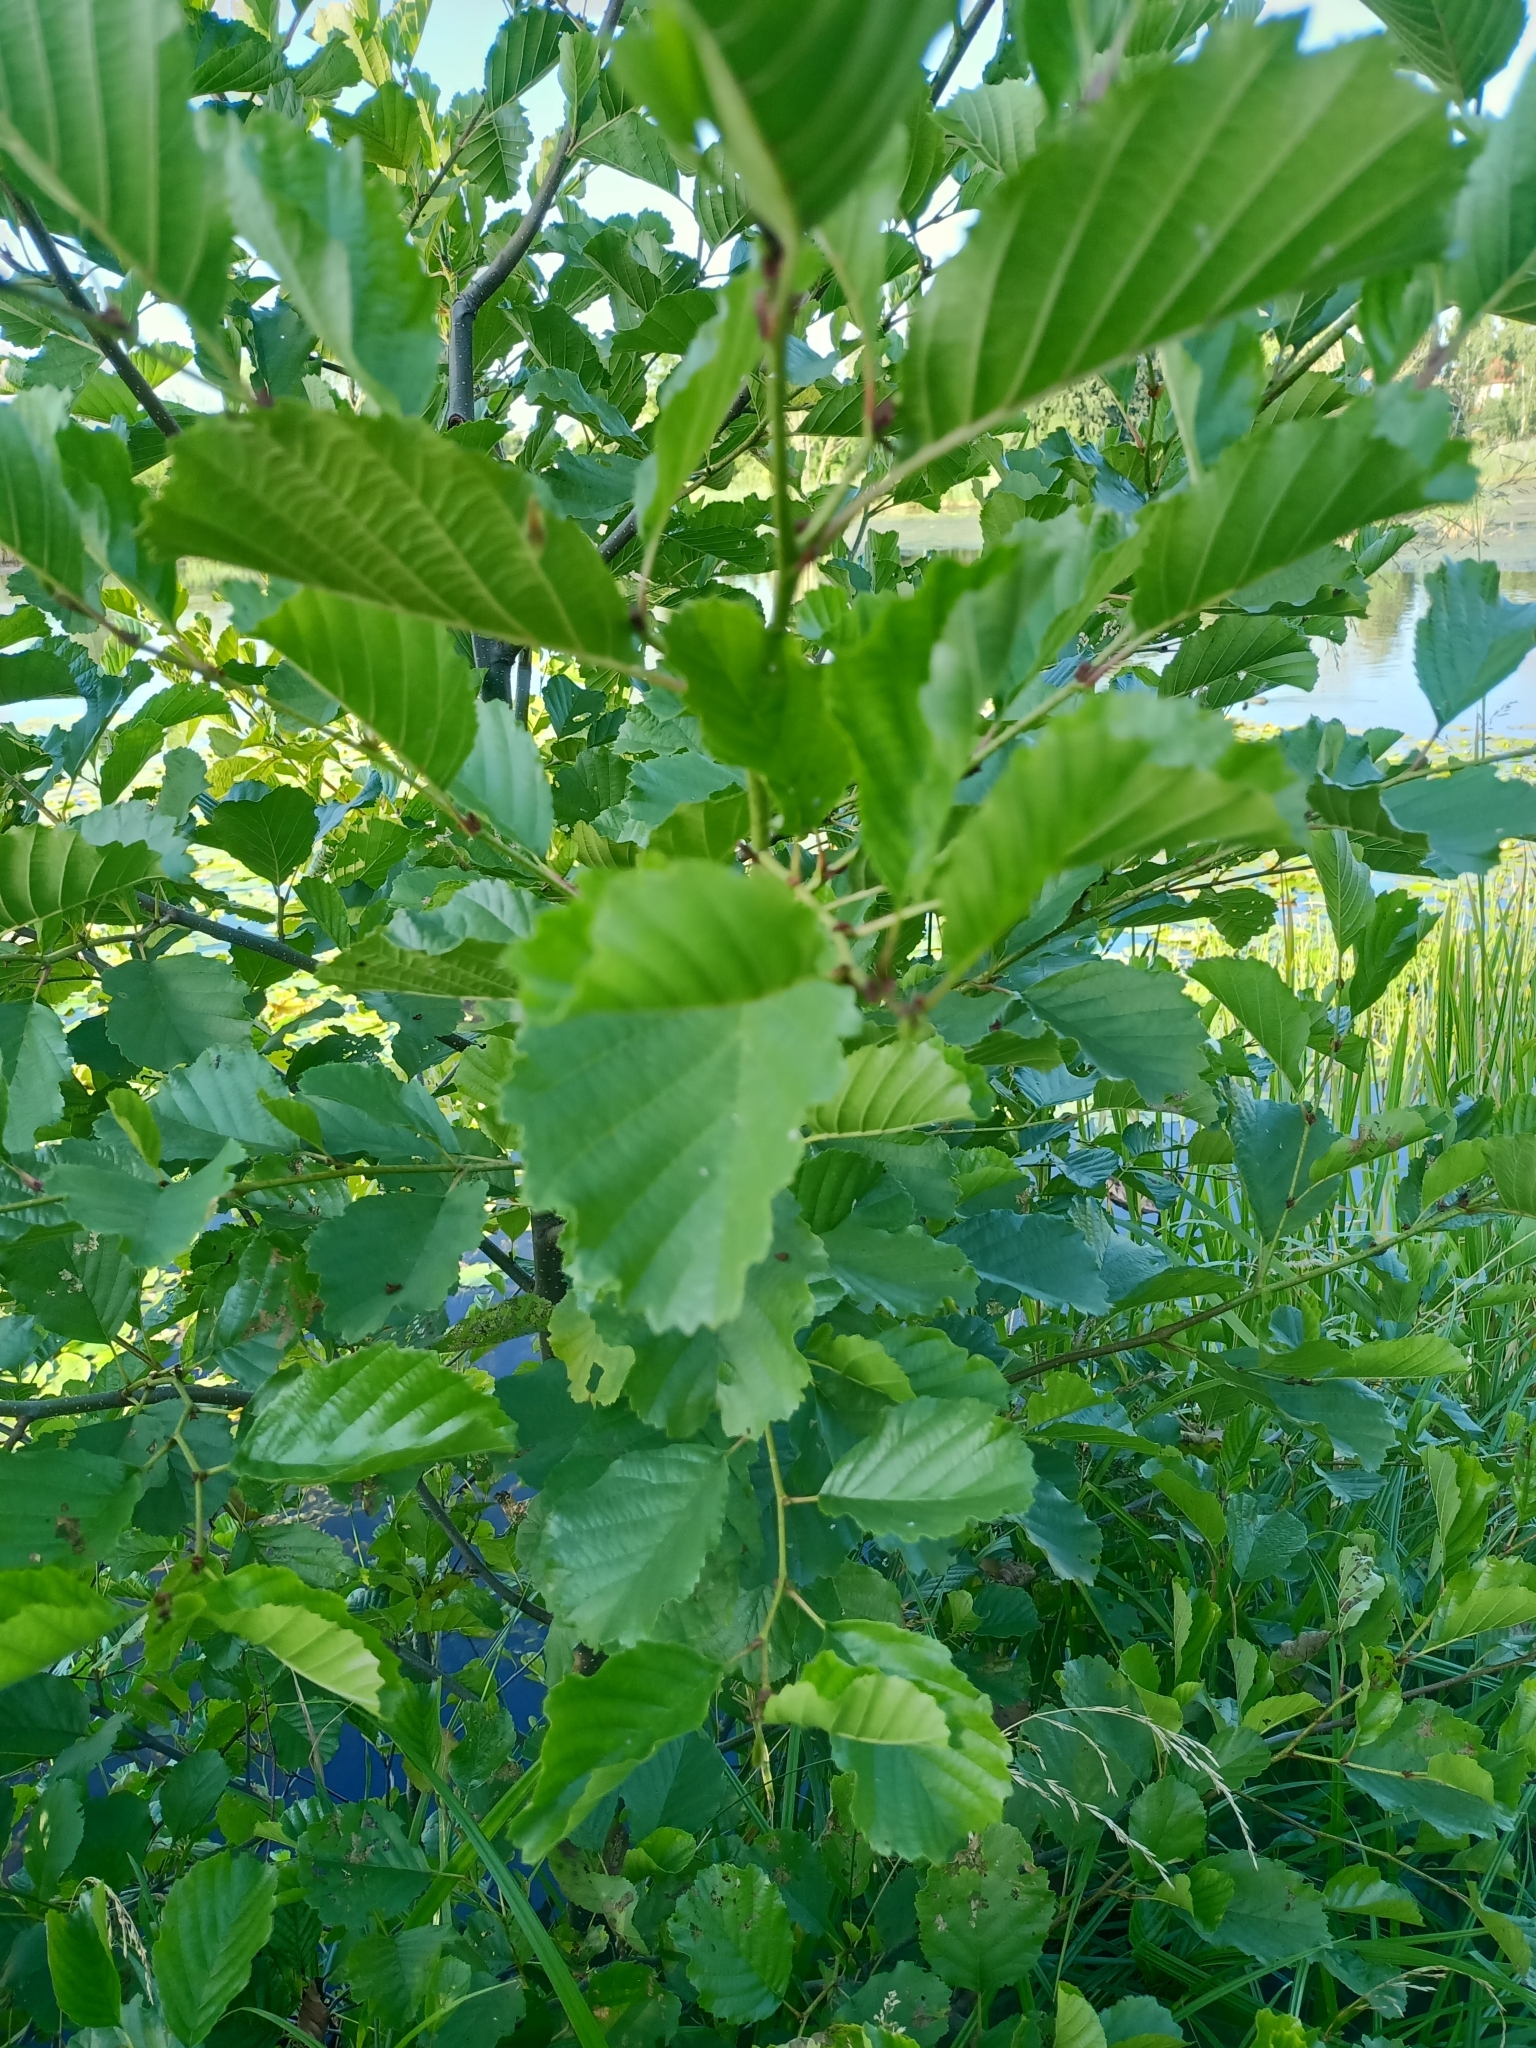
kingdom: Plantae
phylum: Tracheophyta
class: Magnoliopsida
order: Fagales
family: Betulaceae
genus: Alnus
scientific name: Alnus glutinosa
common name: Black alder
